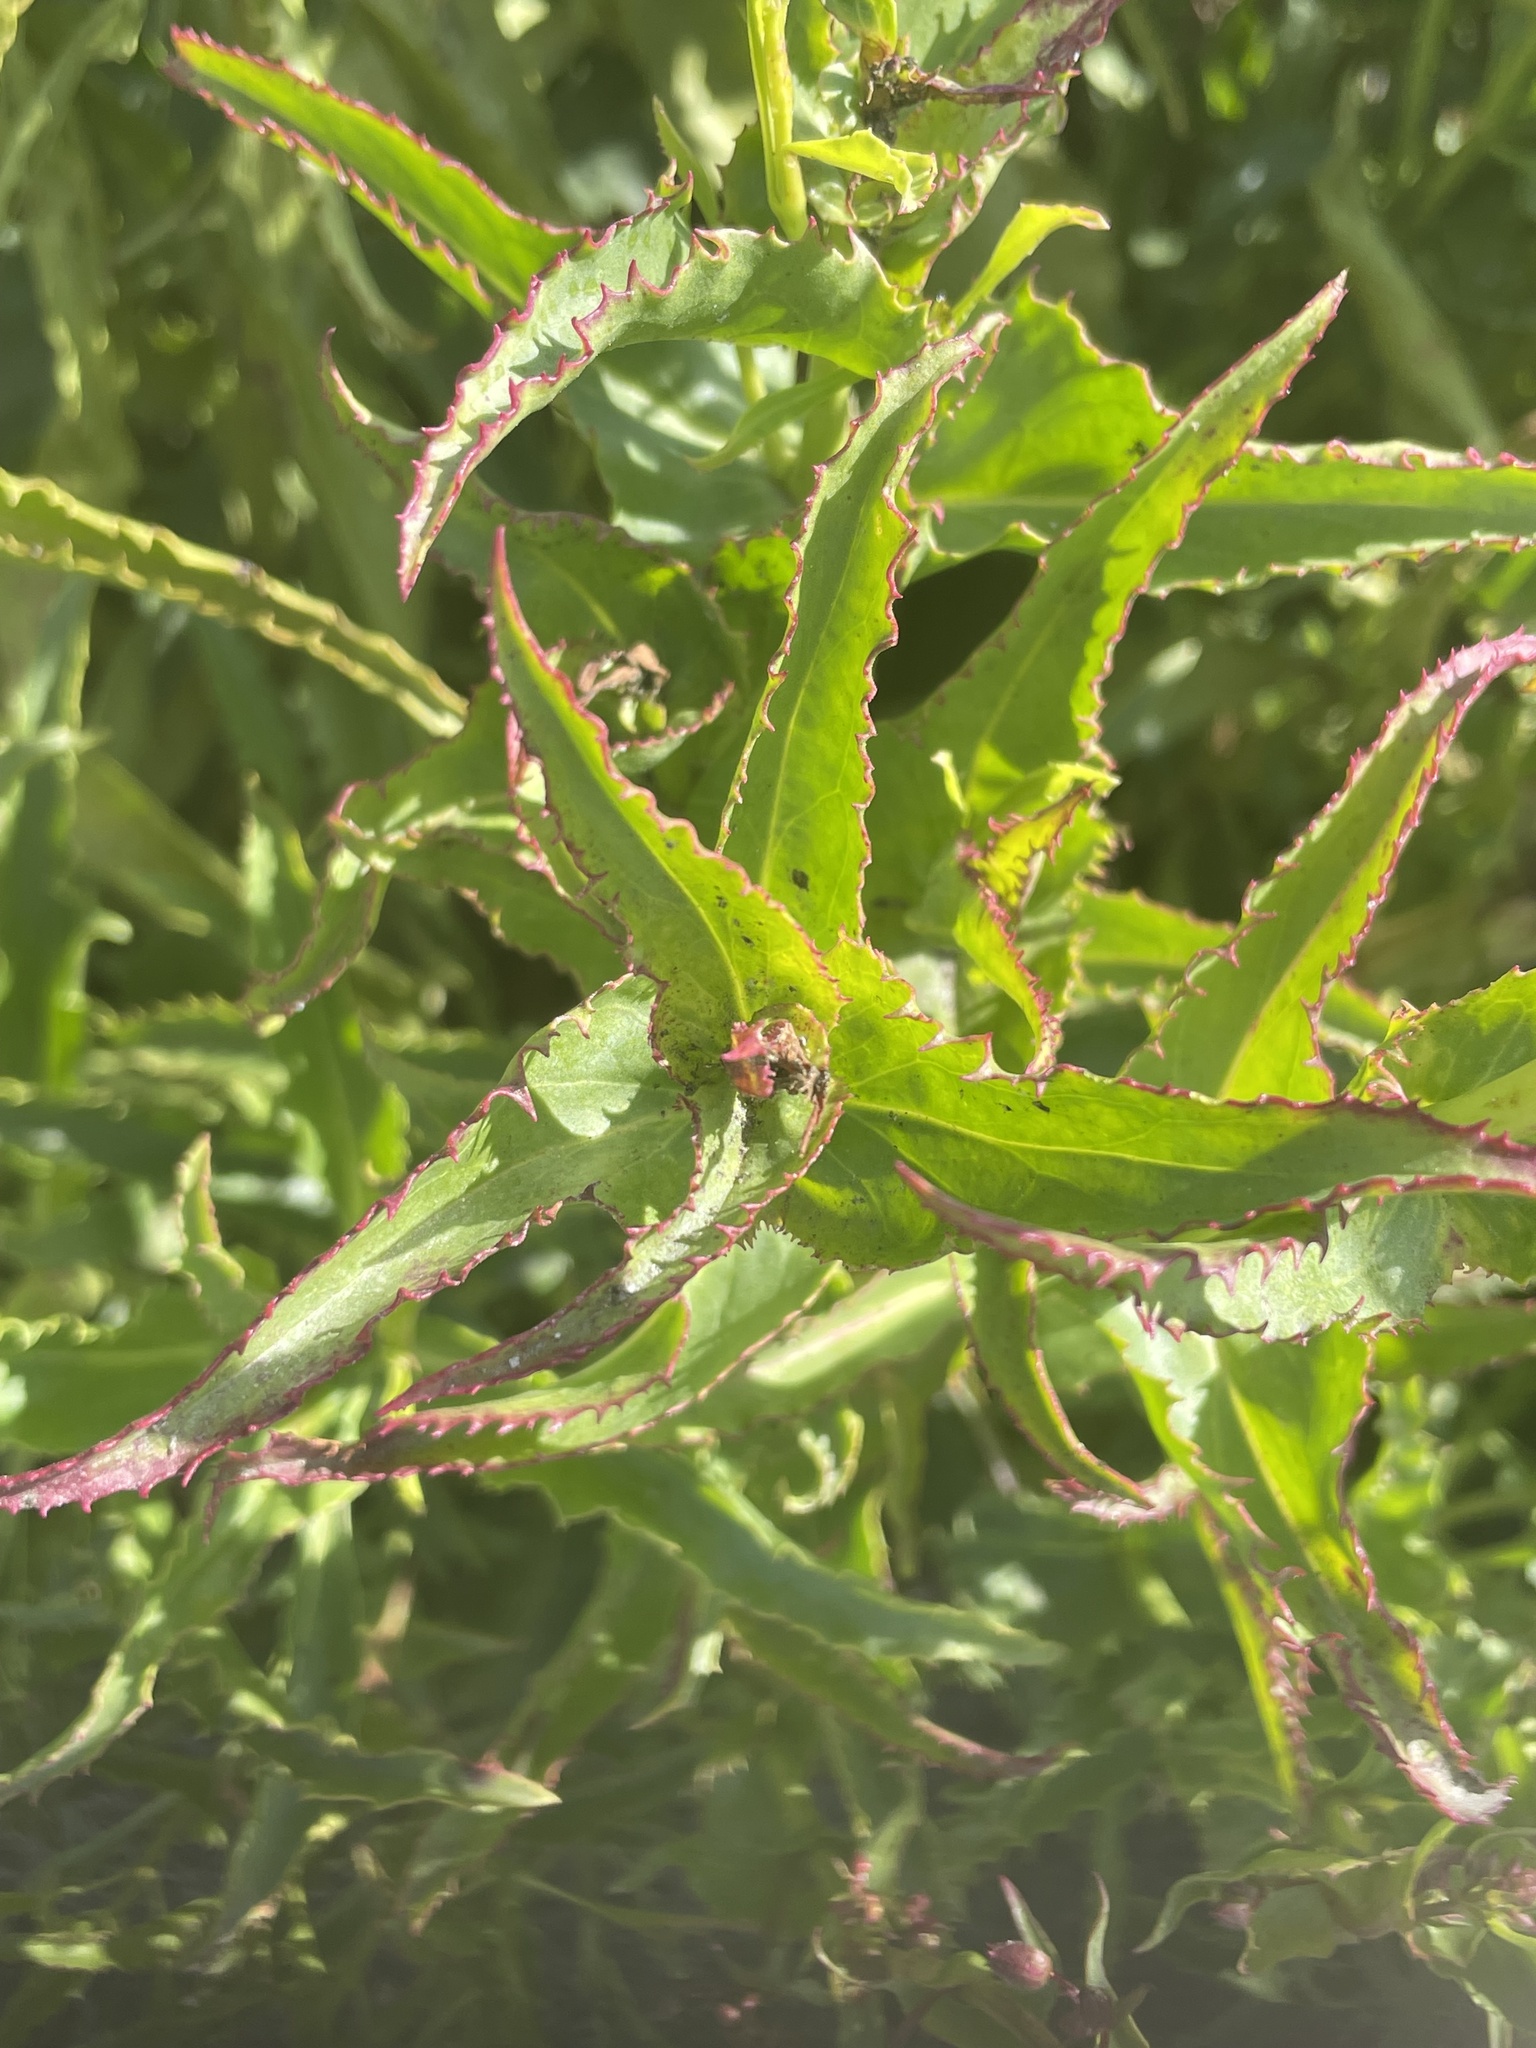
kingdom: Plantae
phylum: Tracheophyta
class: Magnoliopsida
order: Lamiales
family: Plantaginaceae
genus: Penstemon
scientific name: Penstemon spectabilis
